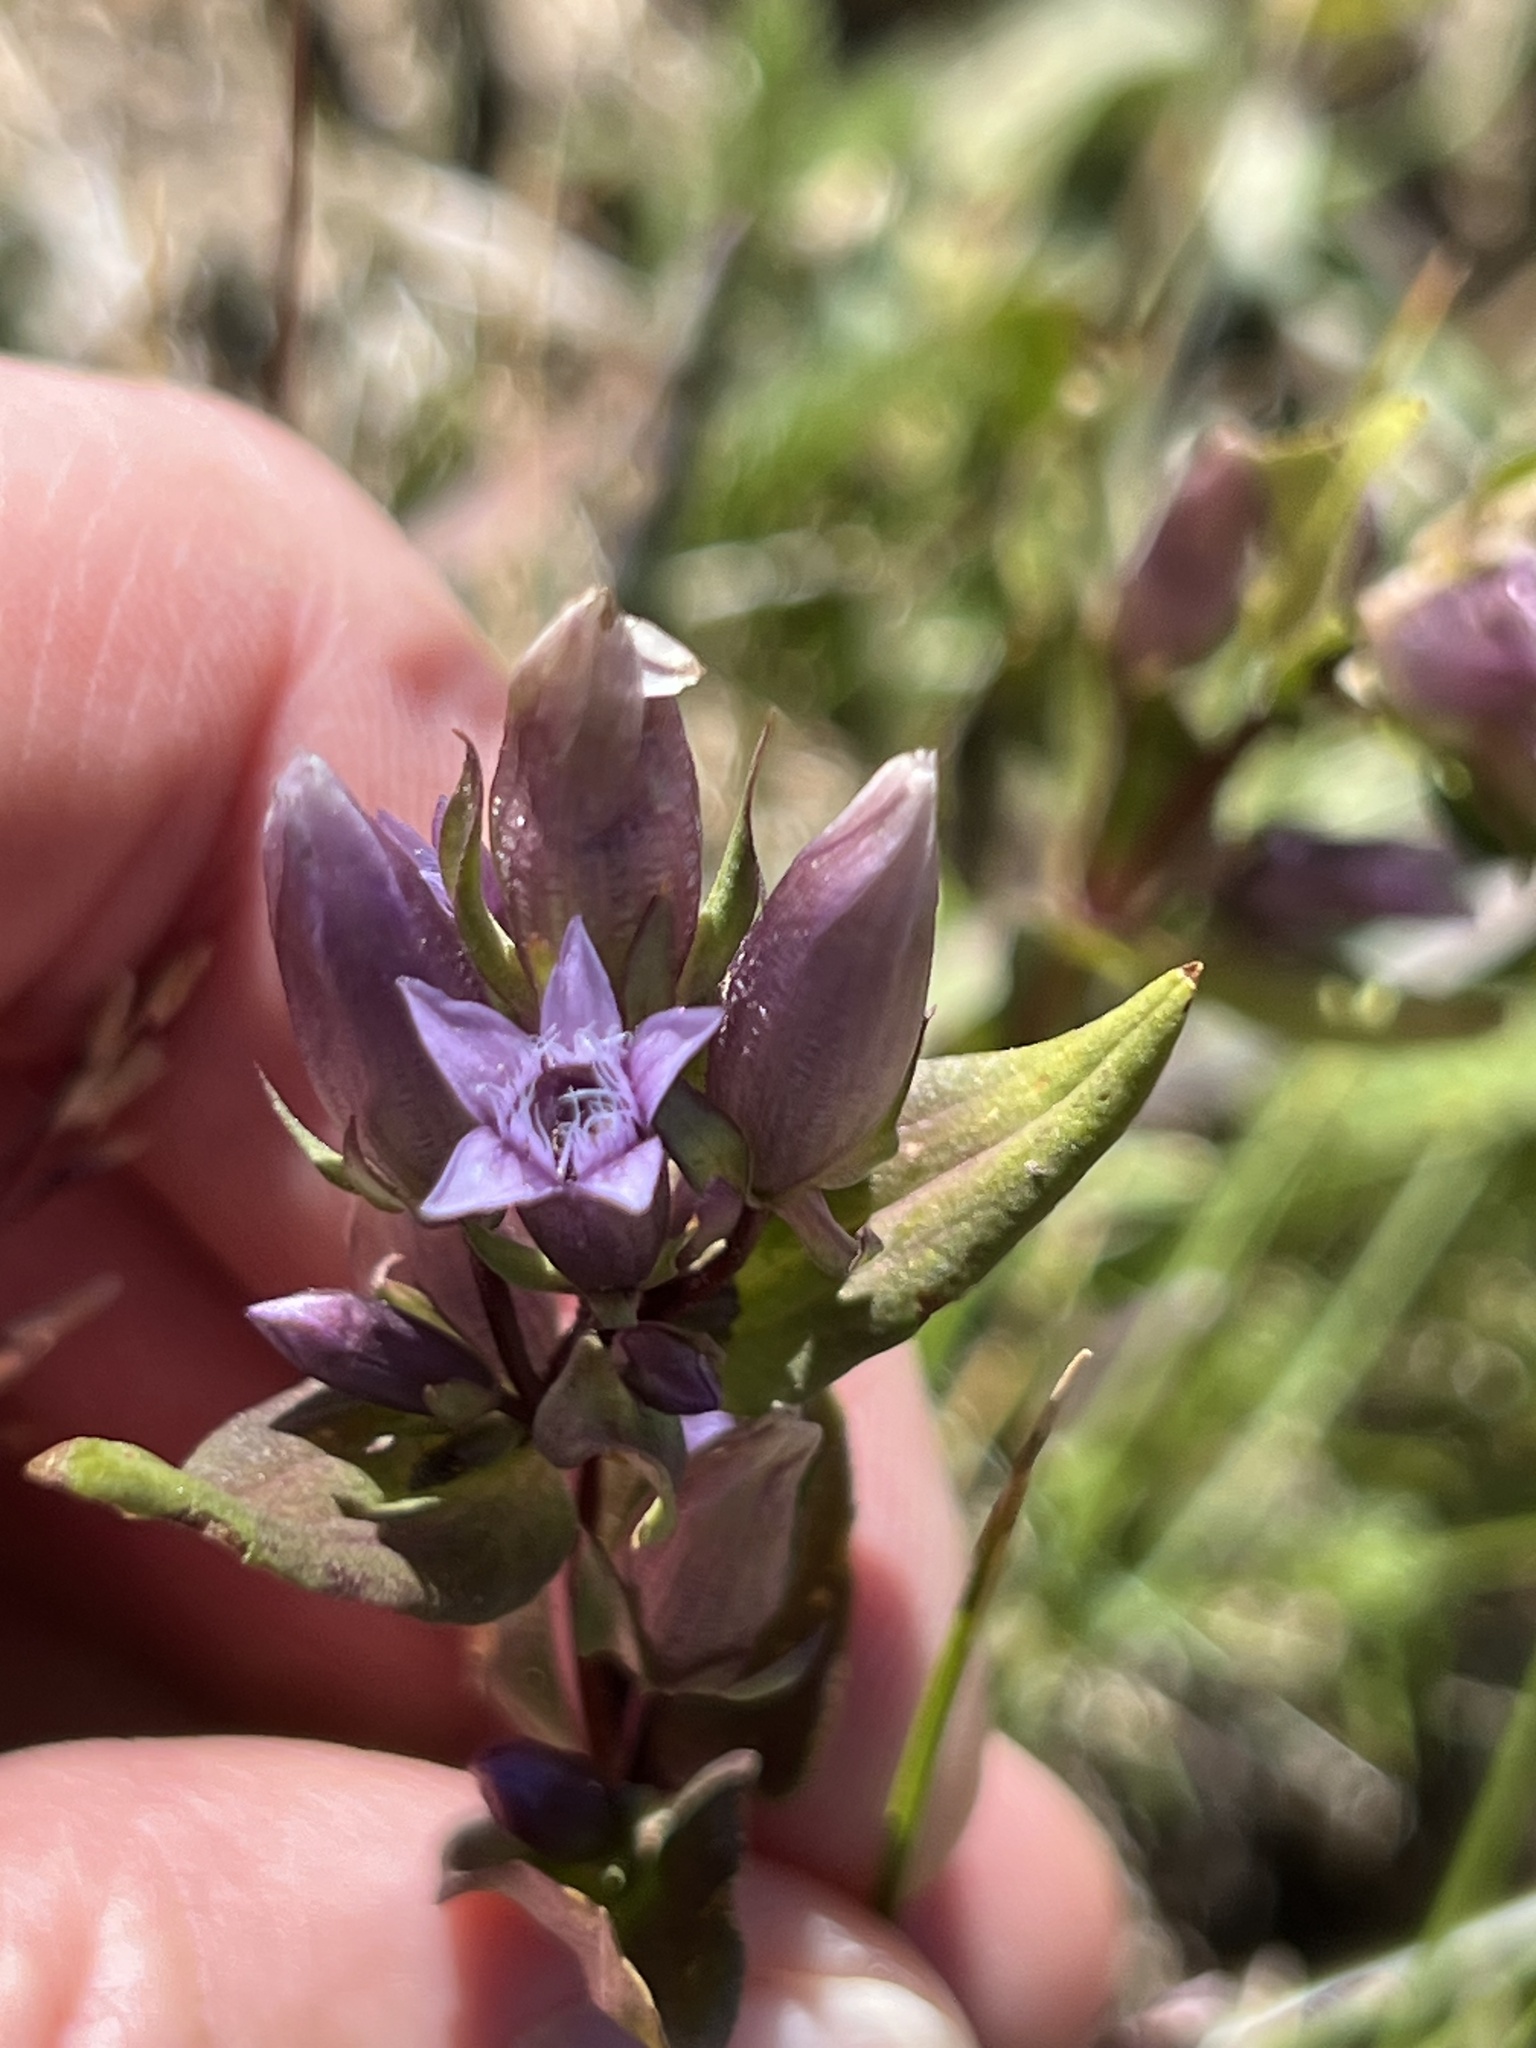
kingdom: Plantae
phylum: Tracheophyta
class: Magnoliopsida
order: Gentianales
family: Gentianaceae
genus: Gentianella
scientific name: Gentianella amarella
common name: Autumn gentian
